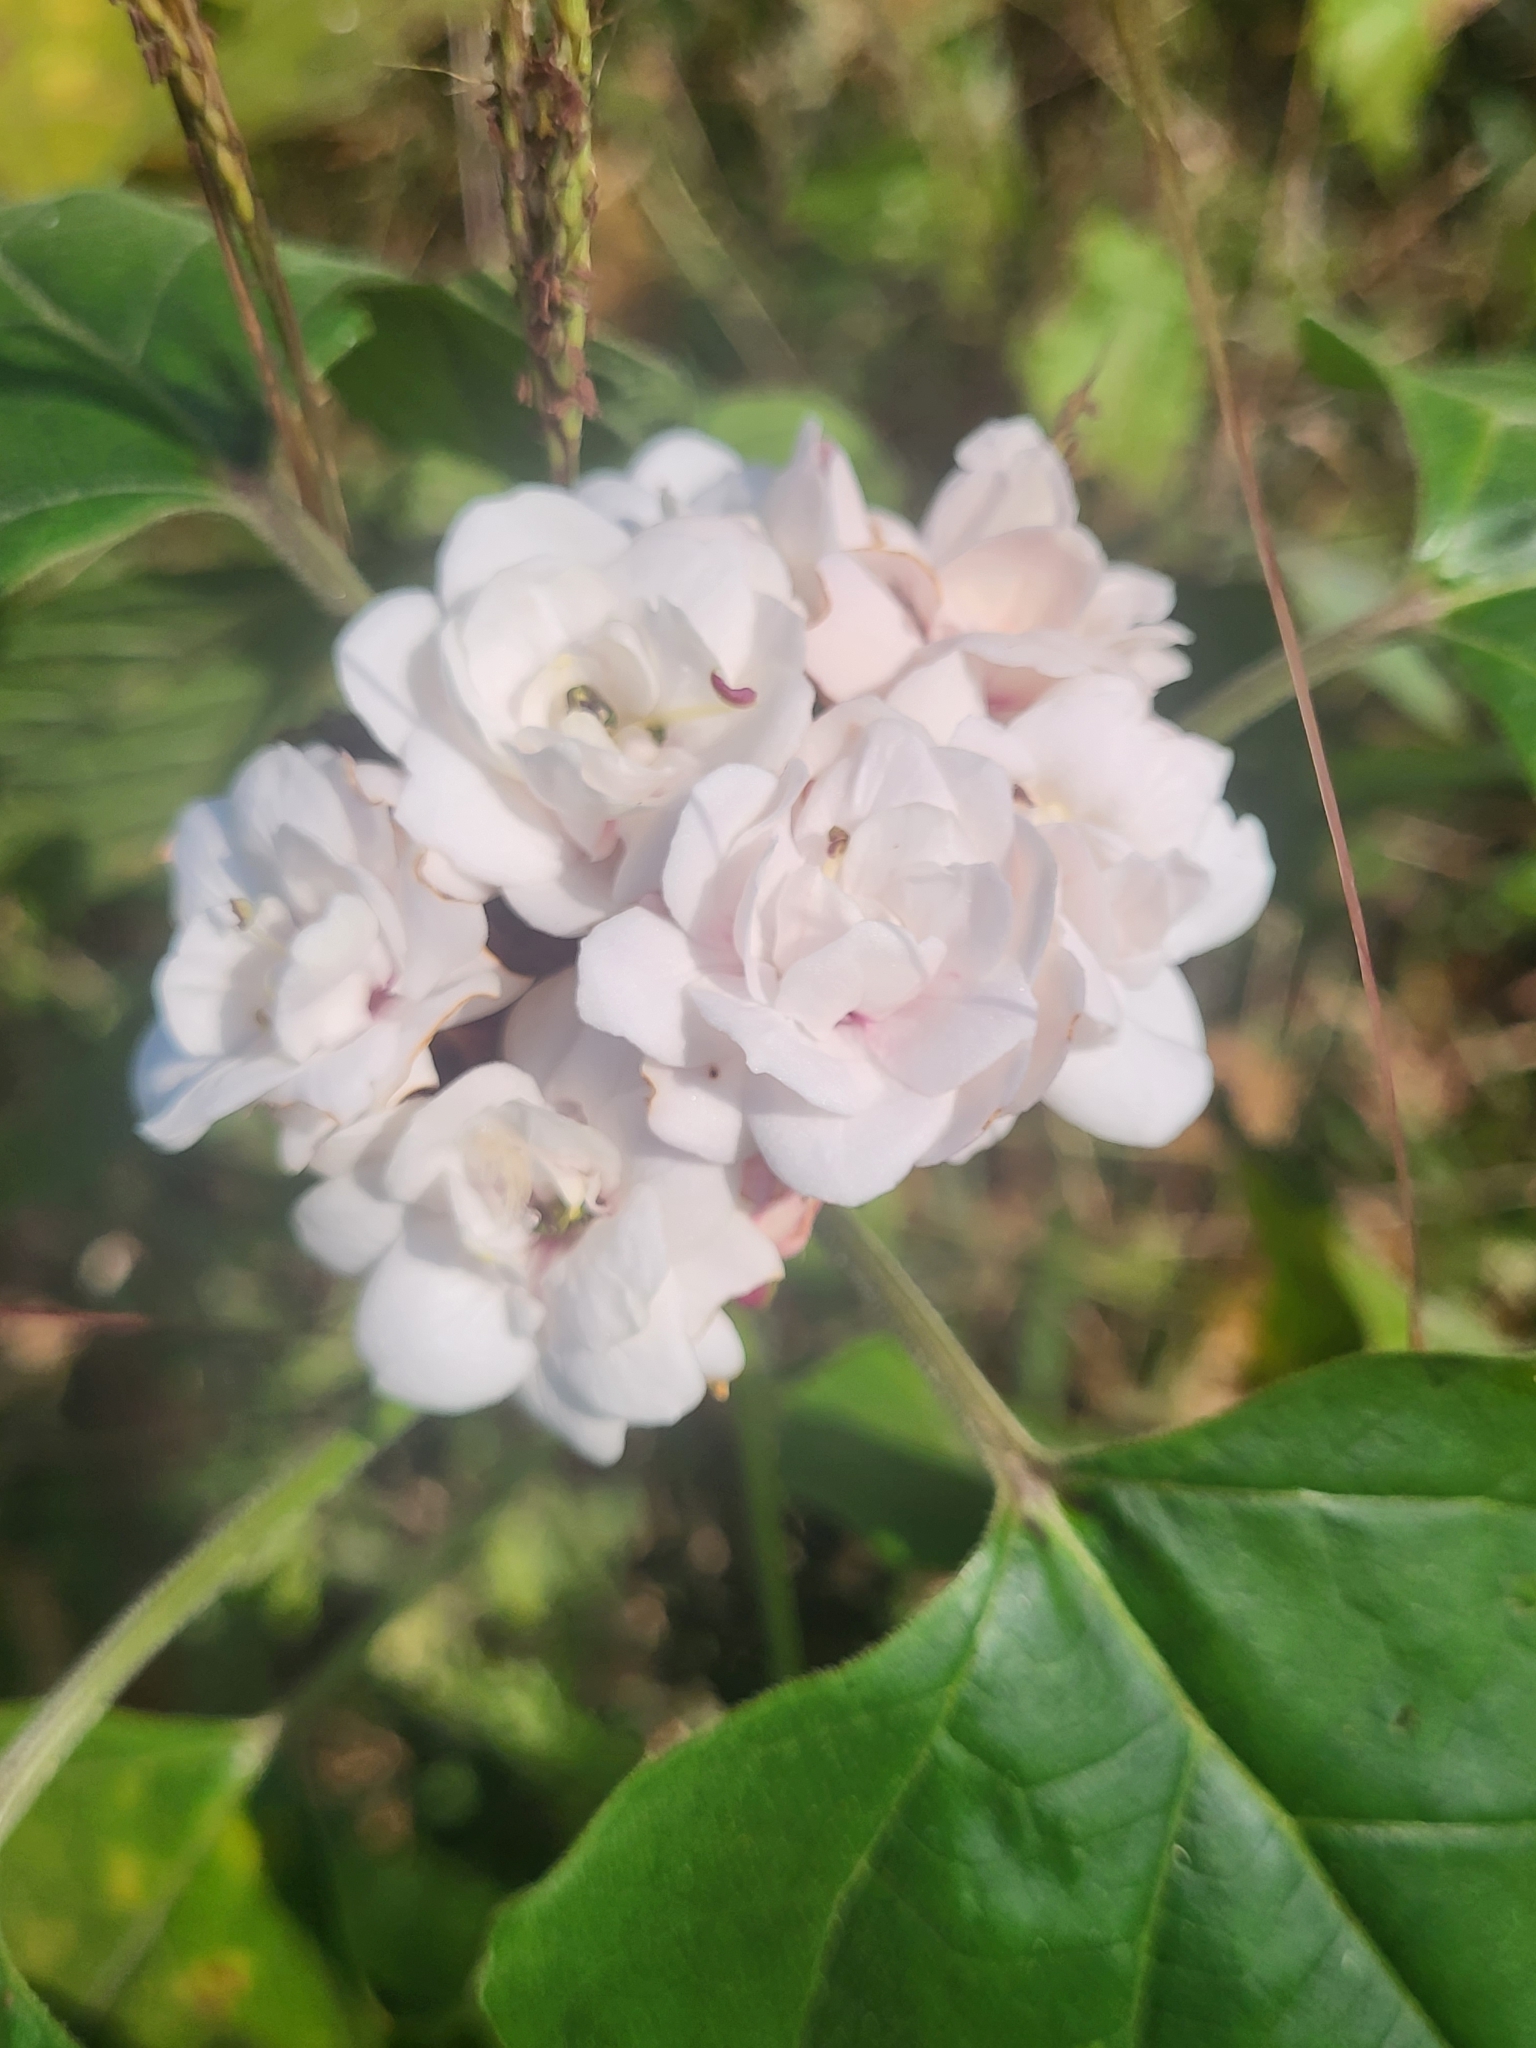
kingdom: Plantae
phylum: Tracheophyta
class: Magnoliopsida
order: Lamiales
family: Lamiaceae
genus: Clerodendrum
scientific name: Clerodendrum chinense
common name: Stickbush
